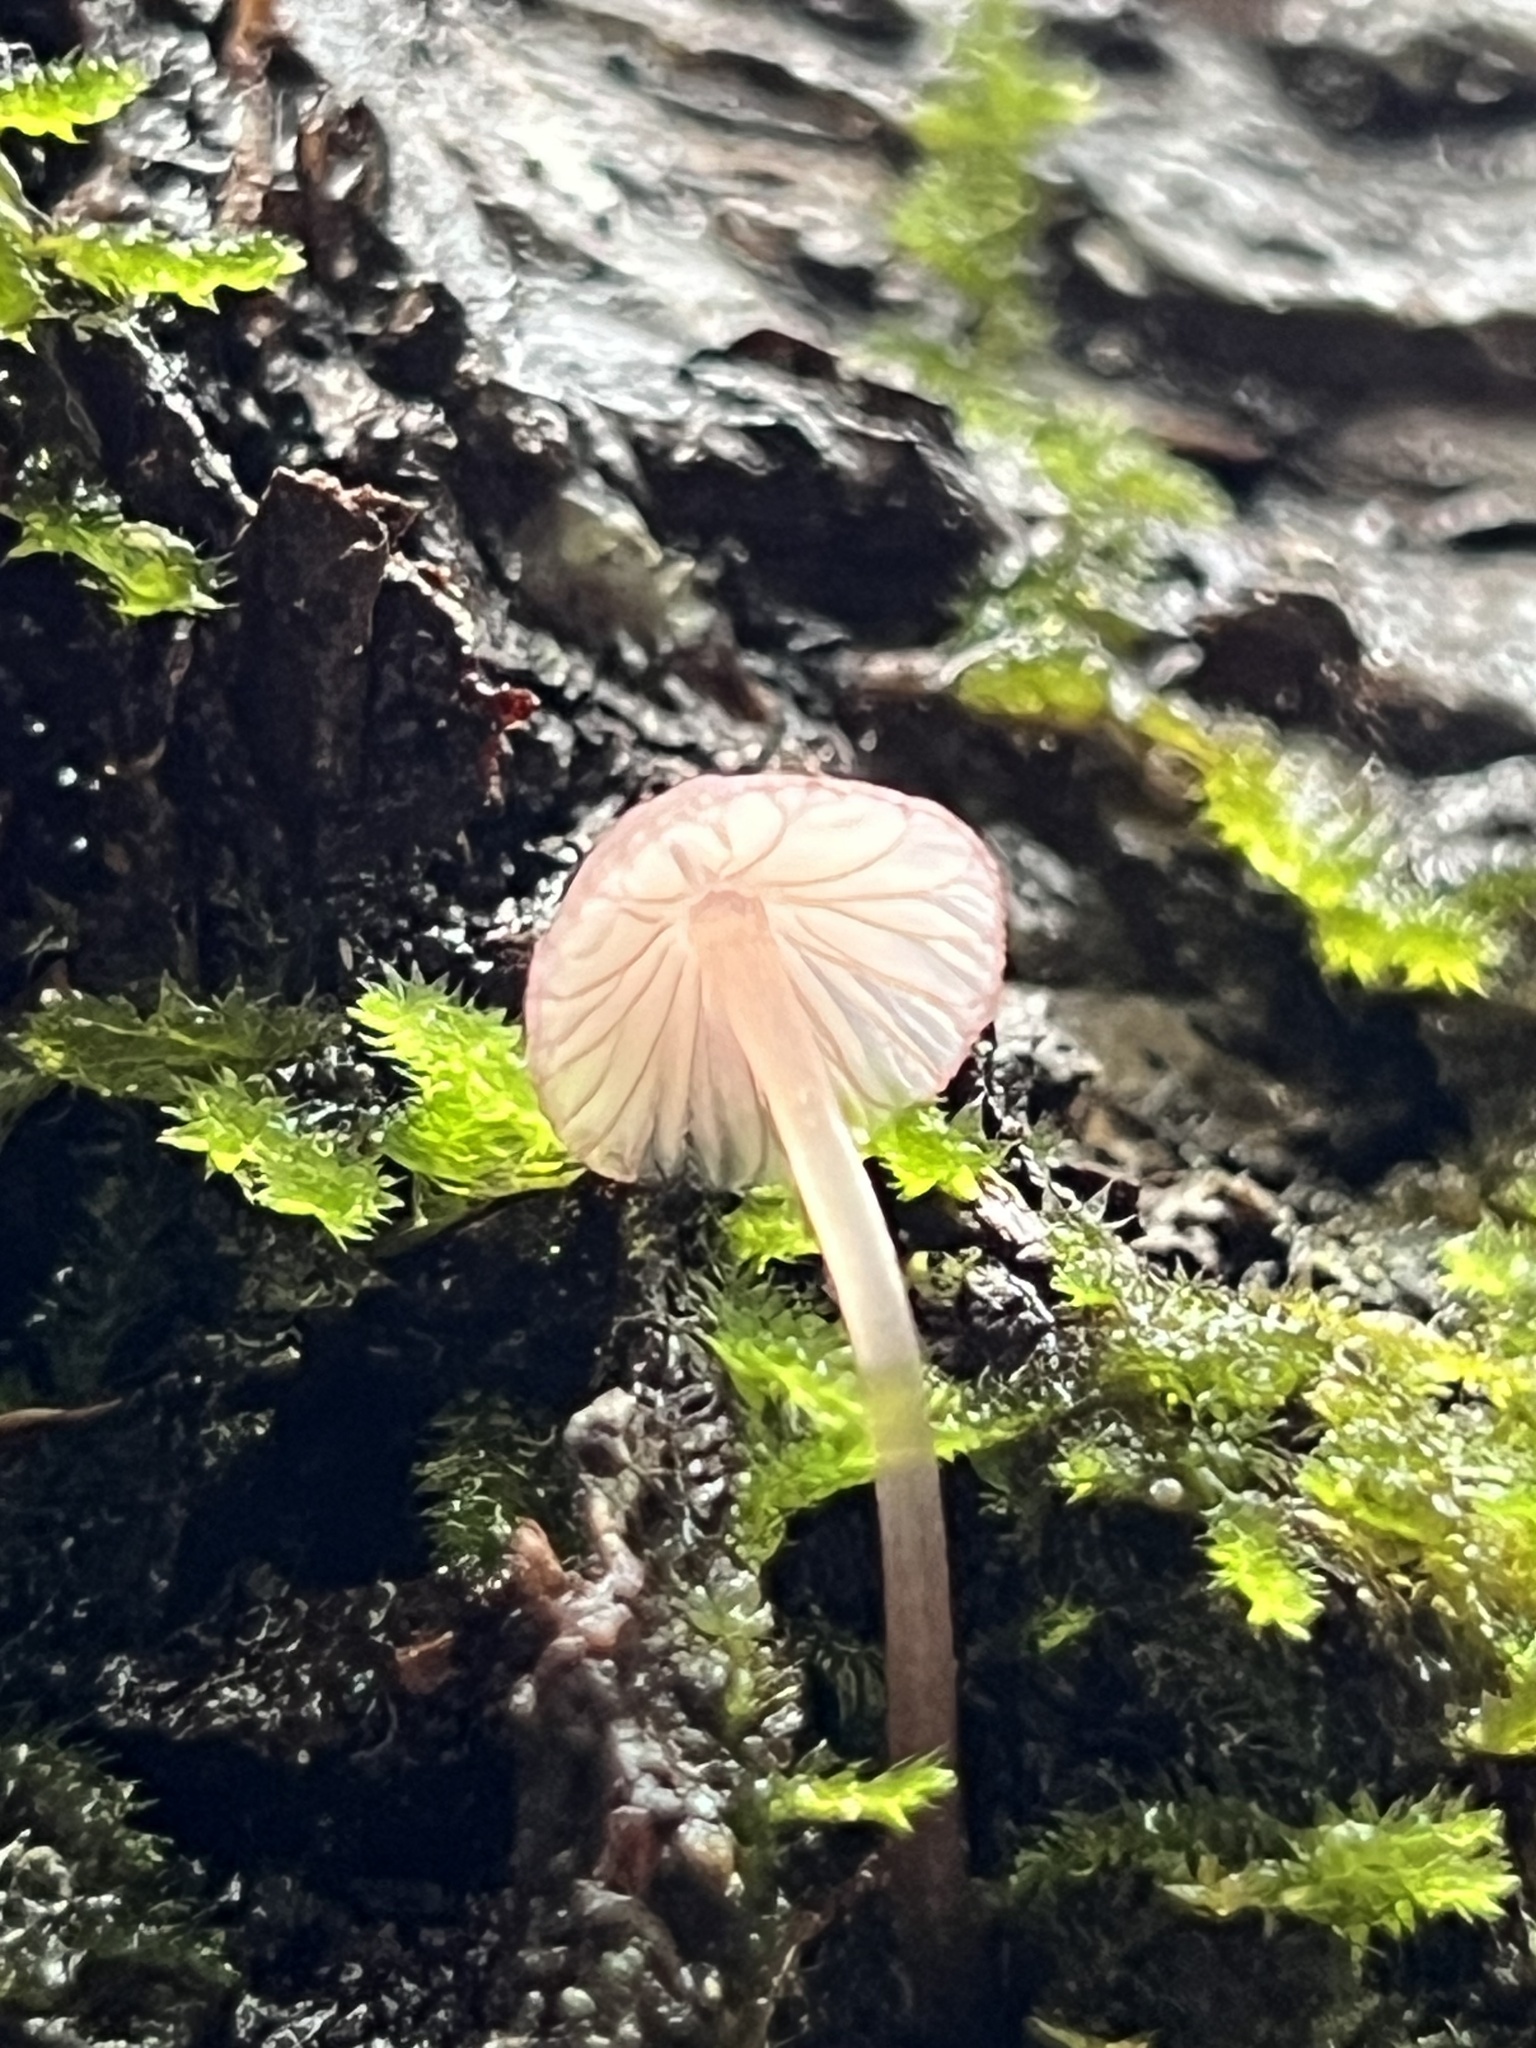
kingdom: Fungi
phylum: Basidiomycota
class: Agaricomycetes
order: Agaricales
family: Mycenaceae
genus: Mycena
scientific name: Mycena purpureofusca
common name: Purple edge bonnet
